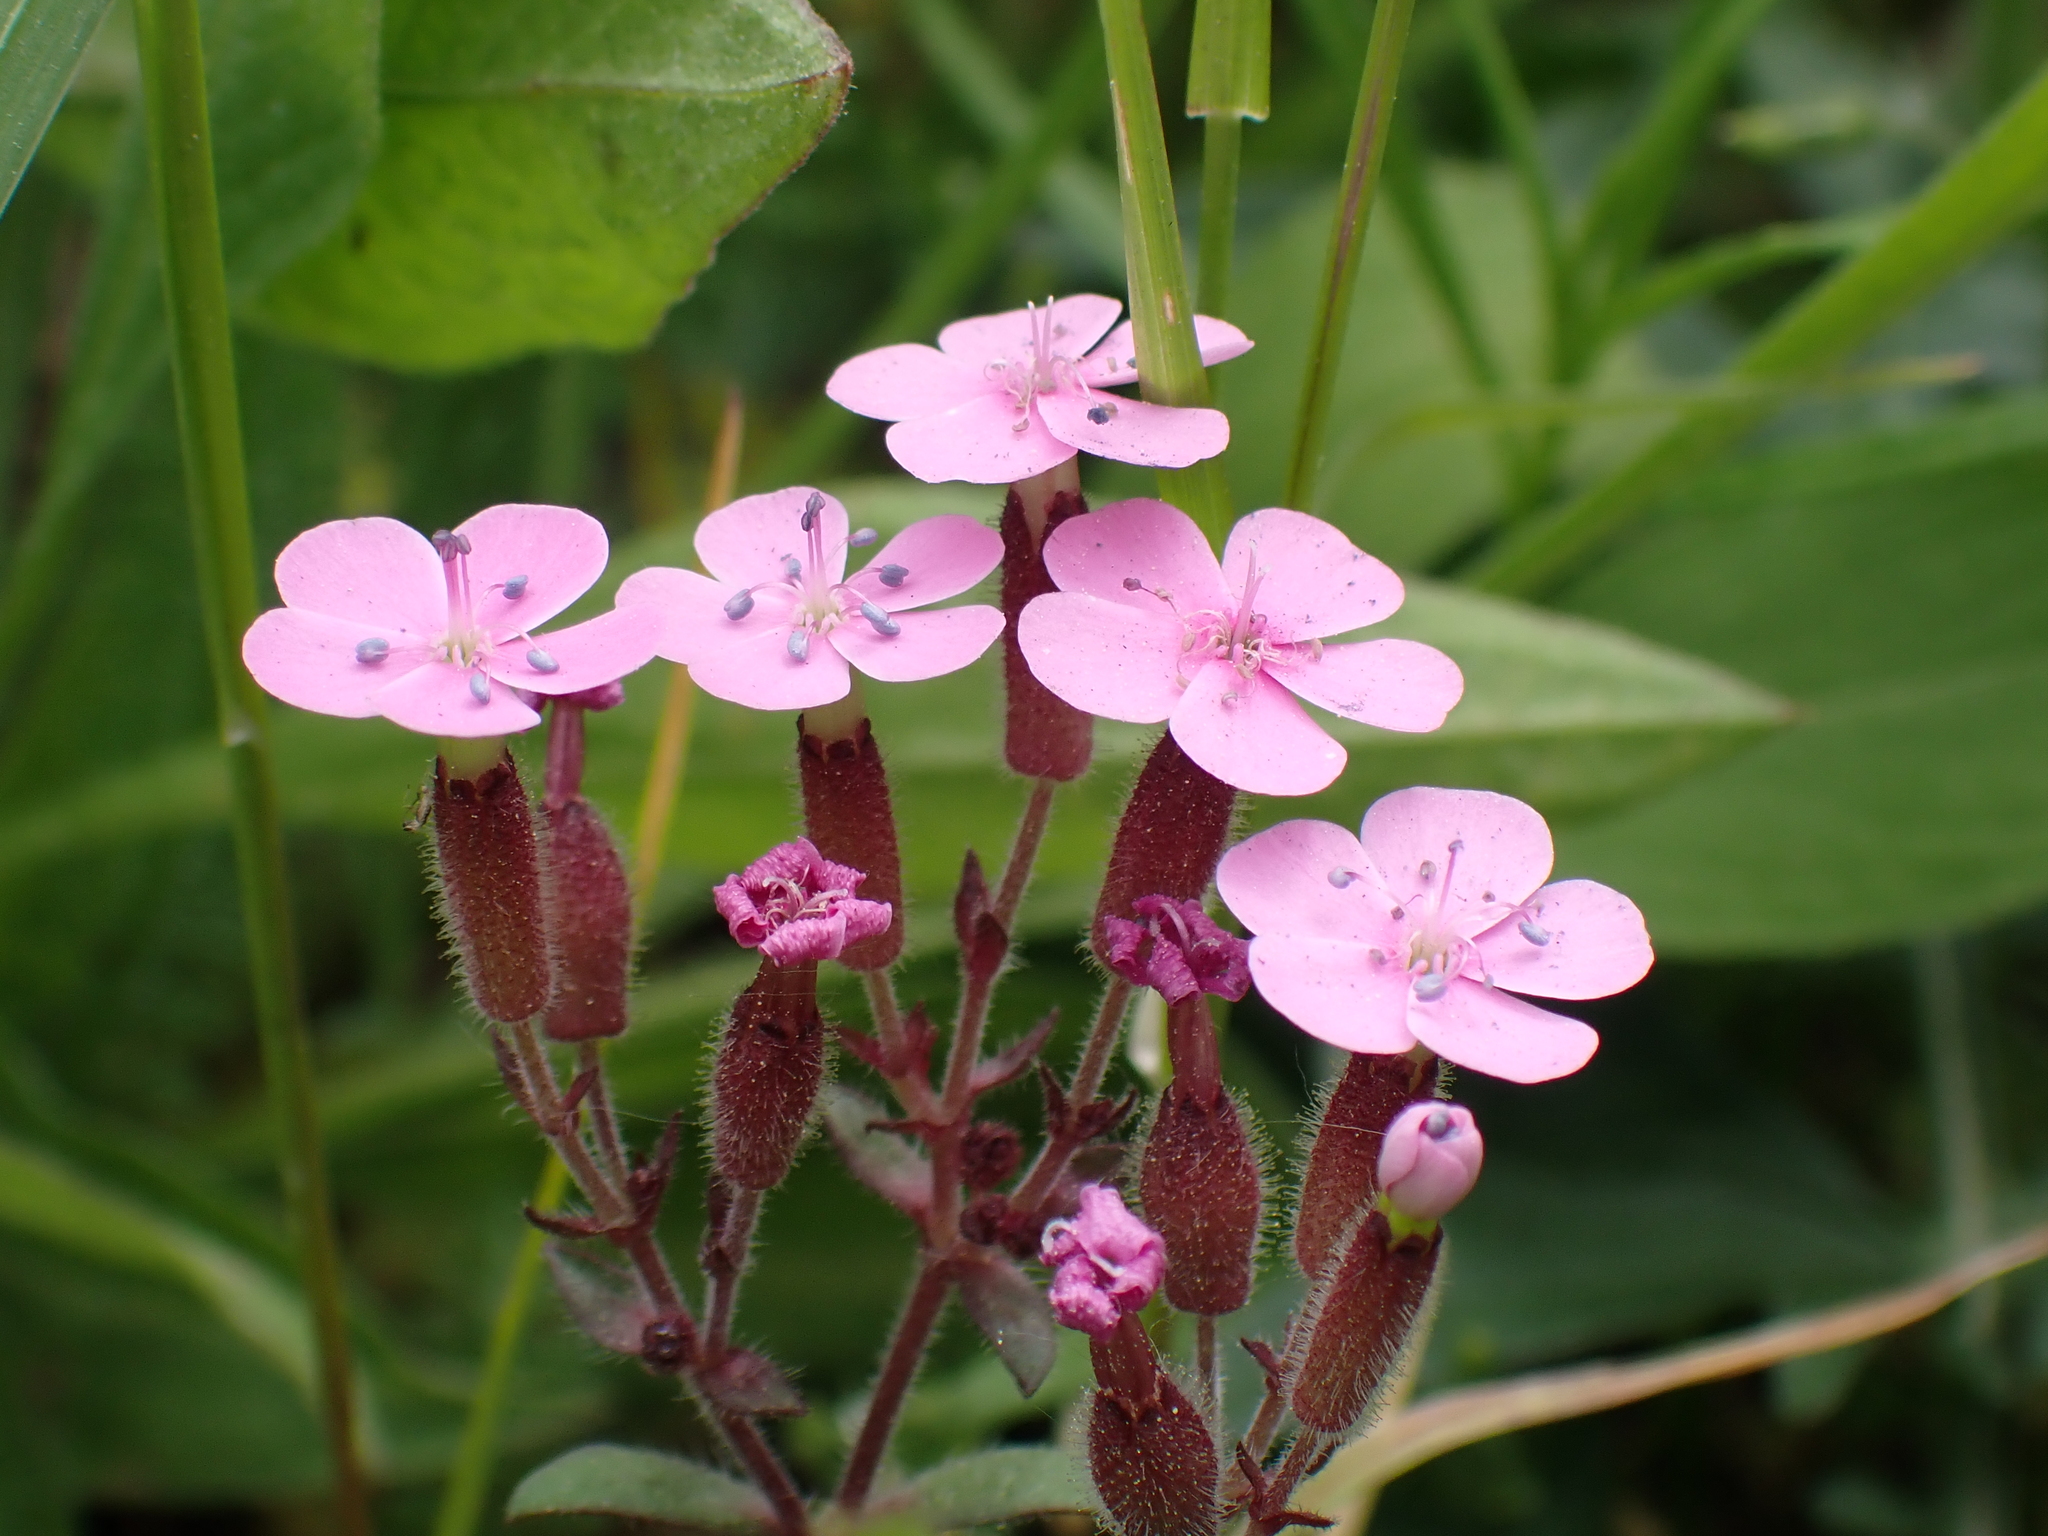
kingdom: Plantae
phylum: Tracheophyta
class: Magnoliopsida
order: Caryophyllales
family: Caryophyllaceae
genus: Saponaria
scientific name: Saponaria ocymoides
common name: Rock soapwort
